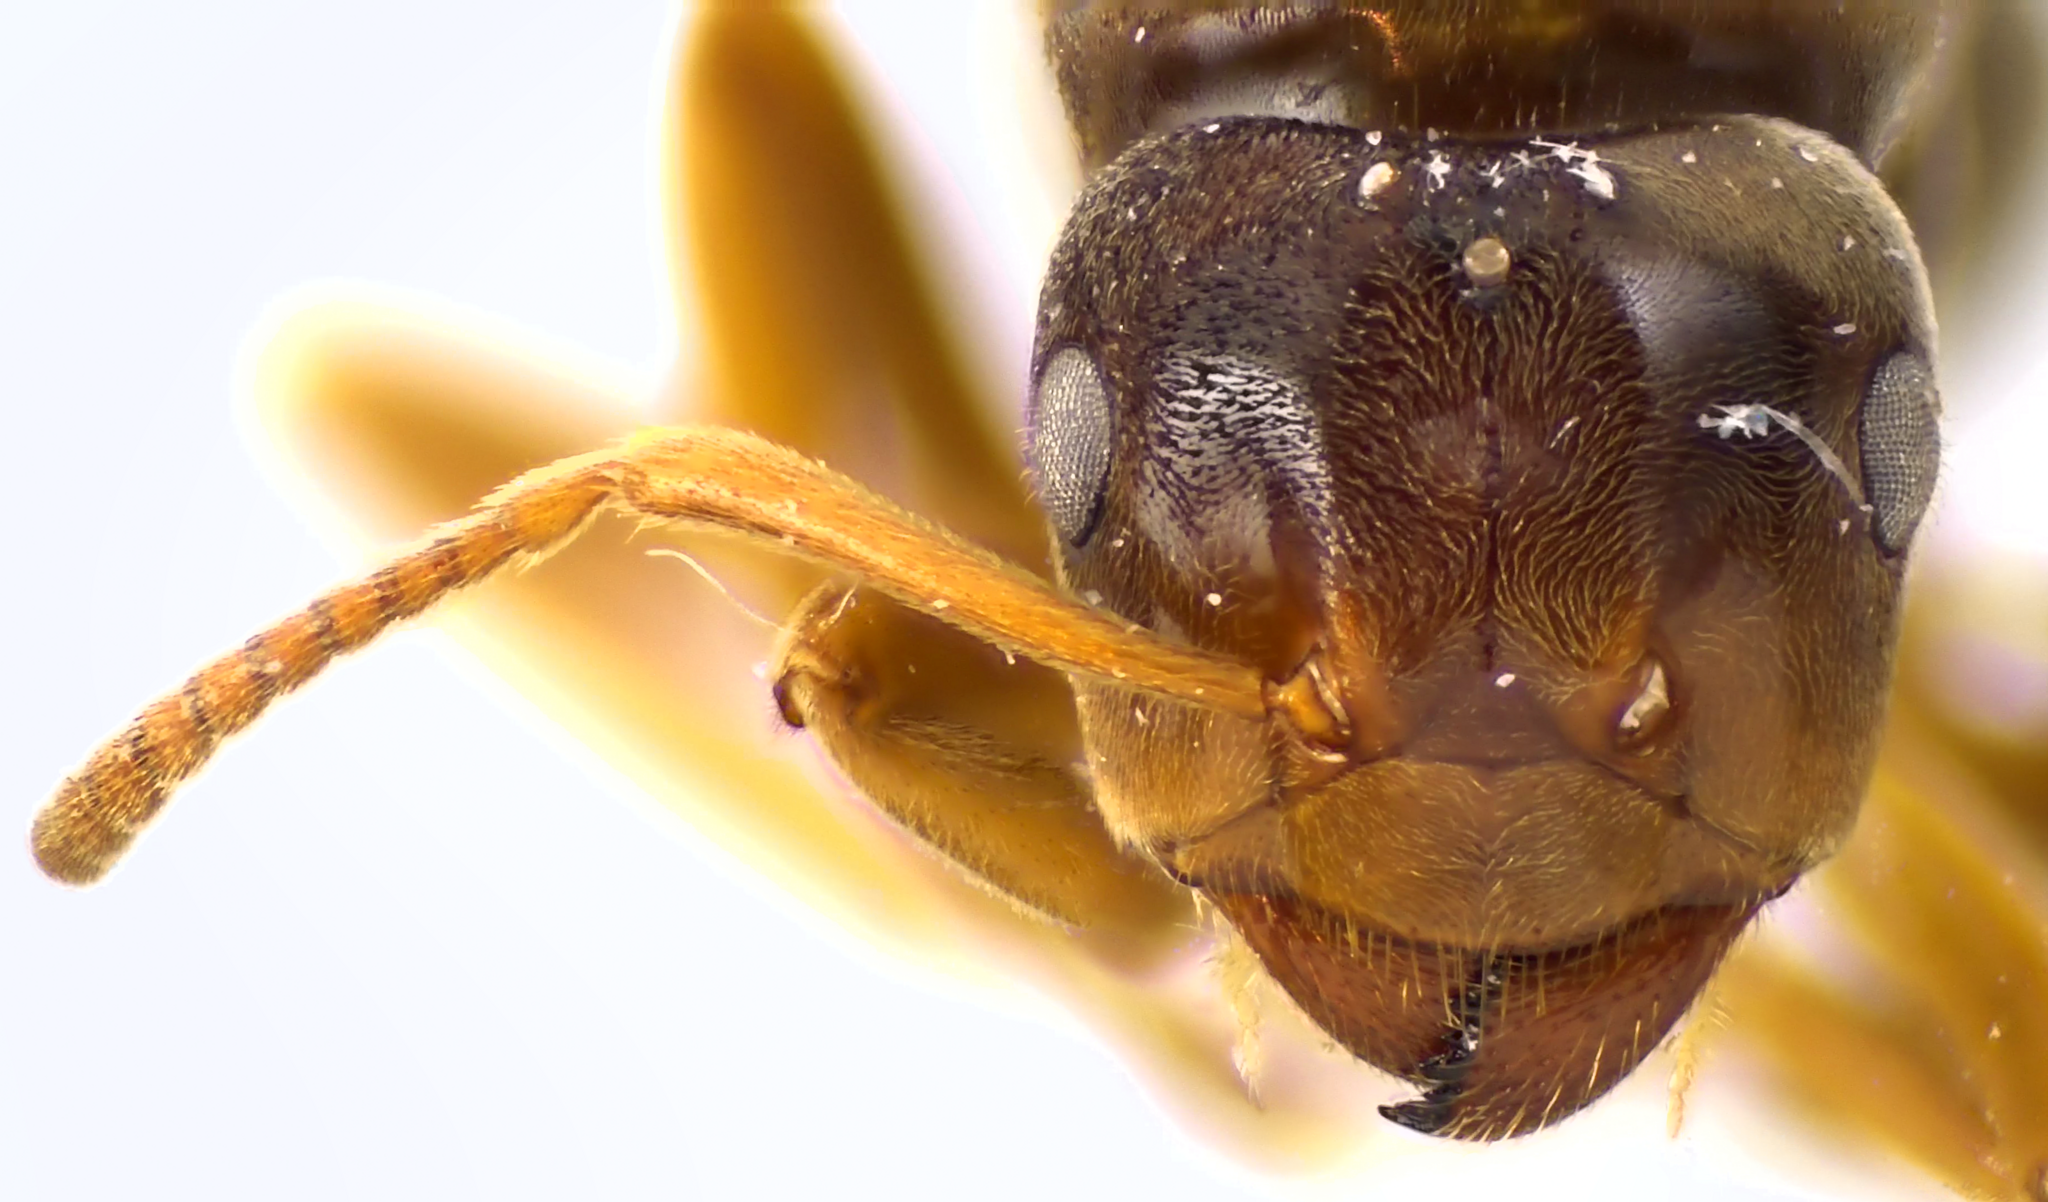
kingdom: Animalia
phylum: Arthropoda
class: Insecta
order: Hymenoptera
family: Formicidae
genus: Lasius
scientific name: Lasius speculiventris
